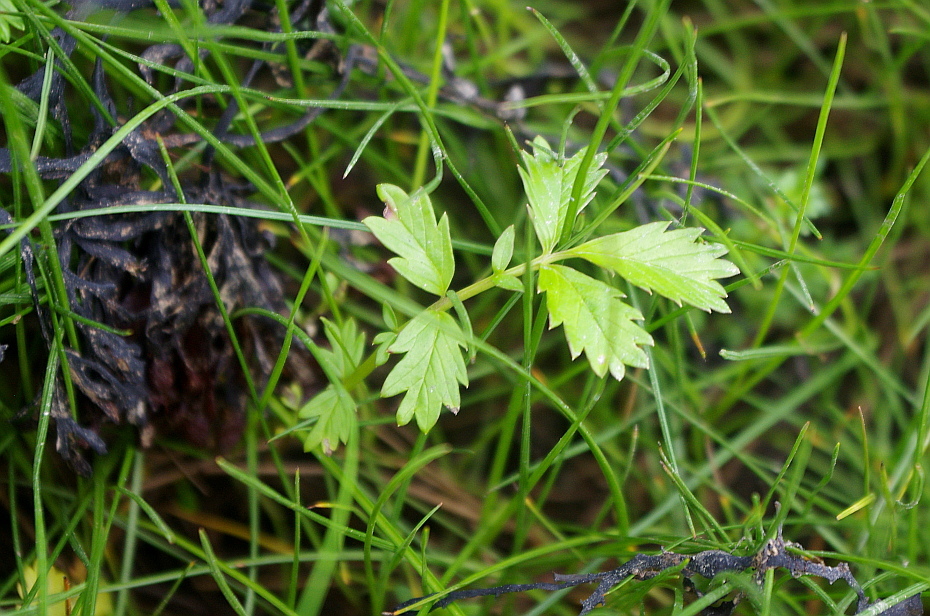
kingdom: Plantae
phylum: Tracheophyta
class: Magnoliopsida
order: Rosales
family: Rosaceae
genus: Argentina
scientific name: Argentina anserina
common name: Common silverweed
